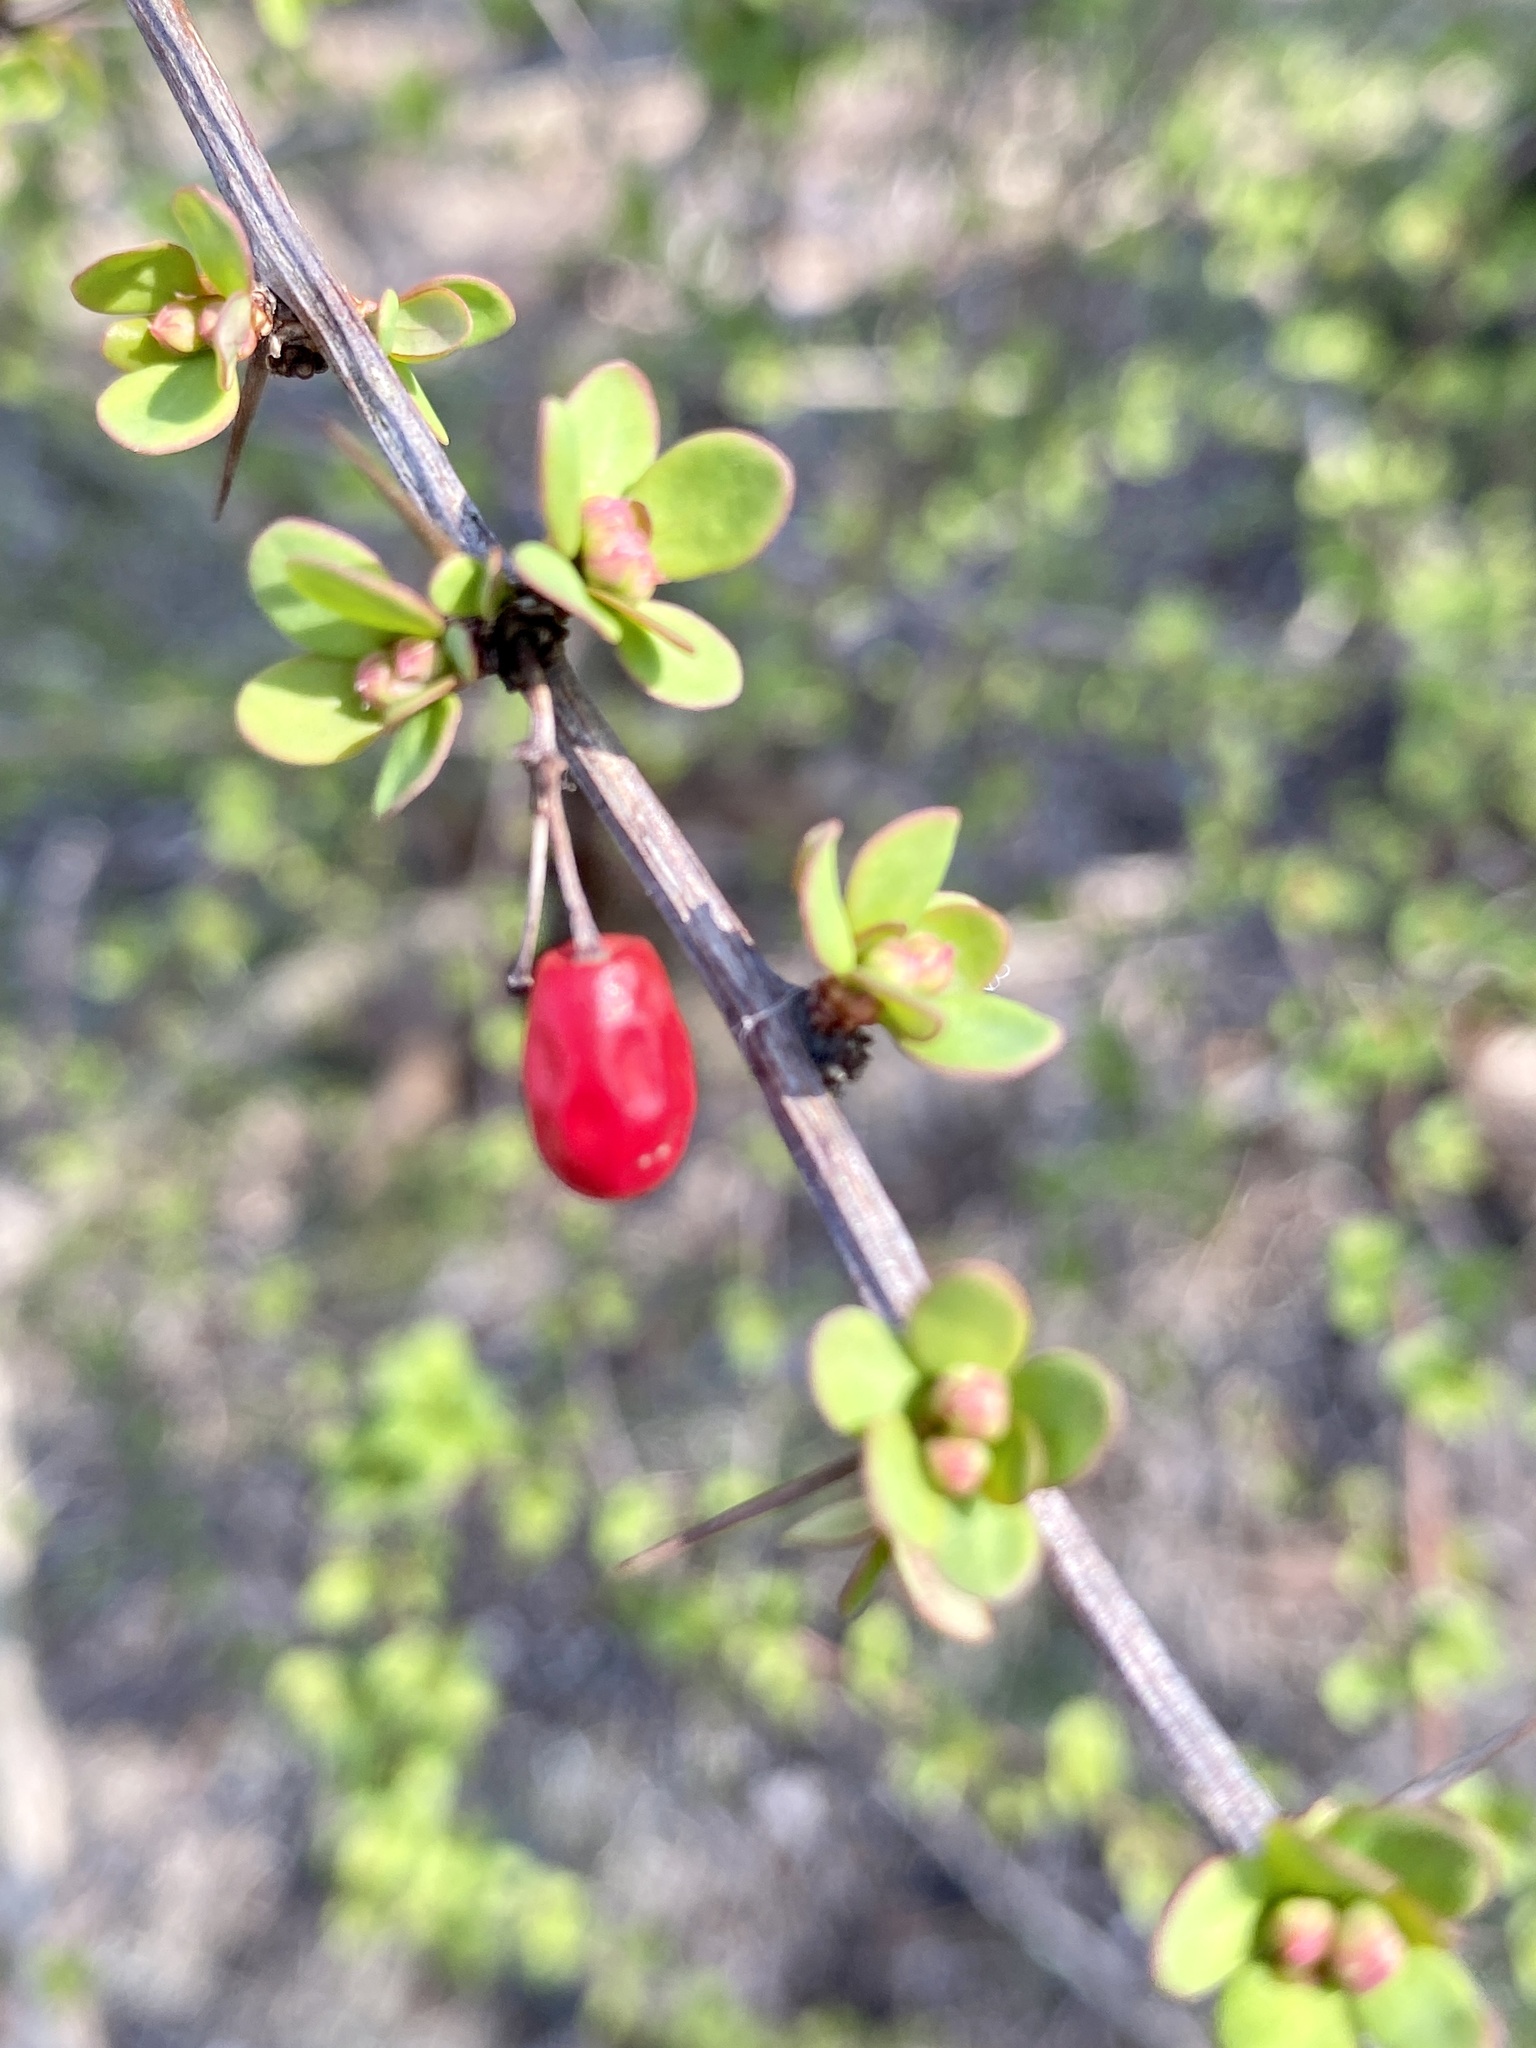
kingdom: Plantae
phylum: Tracheophyta
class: Magnoliopsida
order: Ranunculales
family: Berberidaceae
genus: Berberis
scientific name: Berberis thunbergii
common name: Japanese barberry
